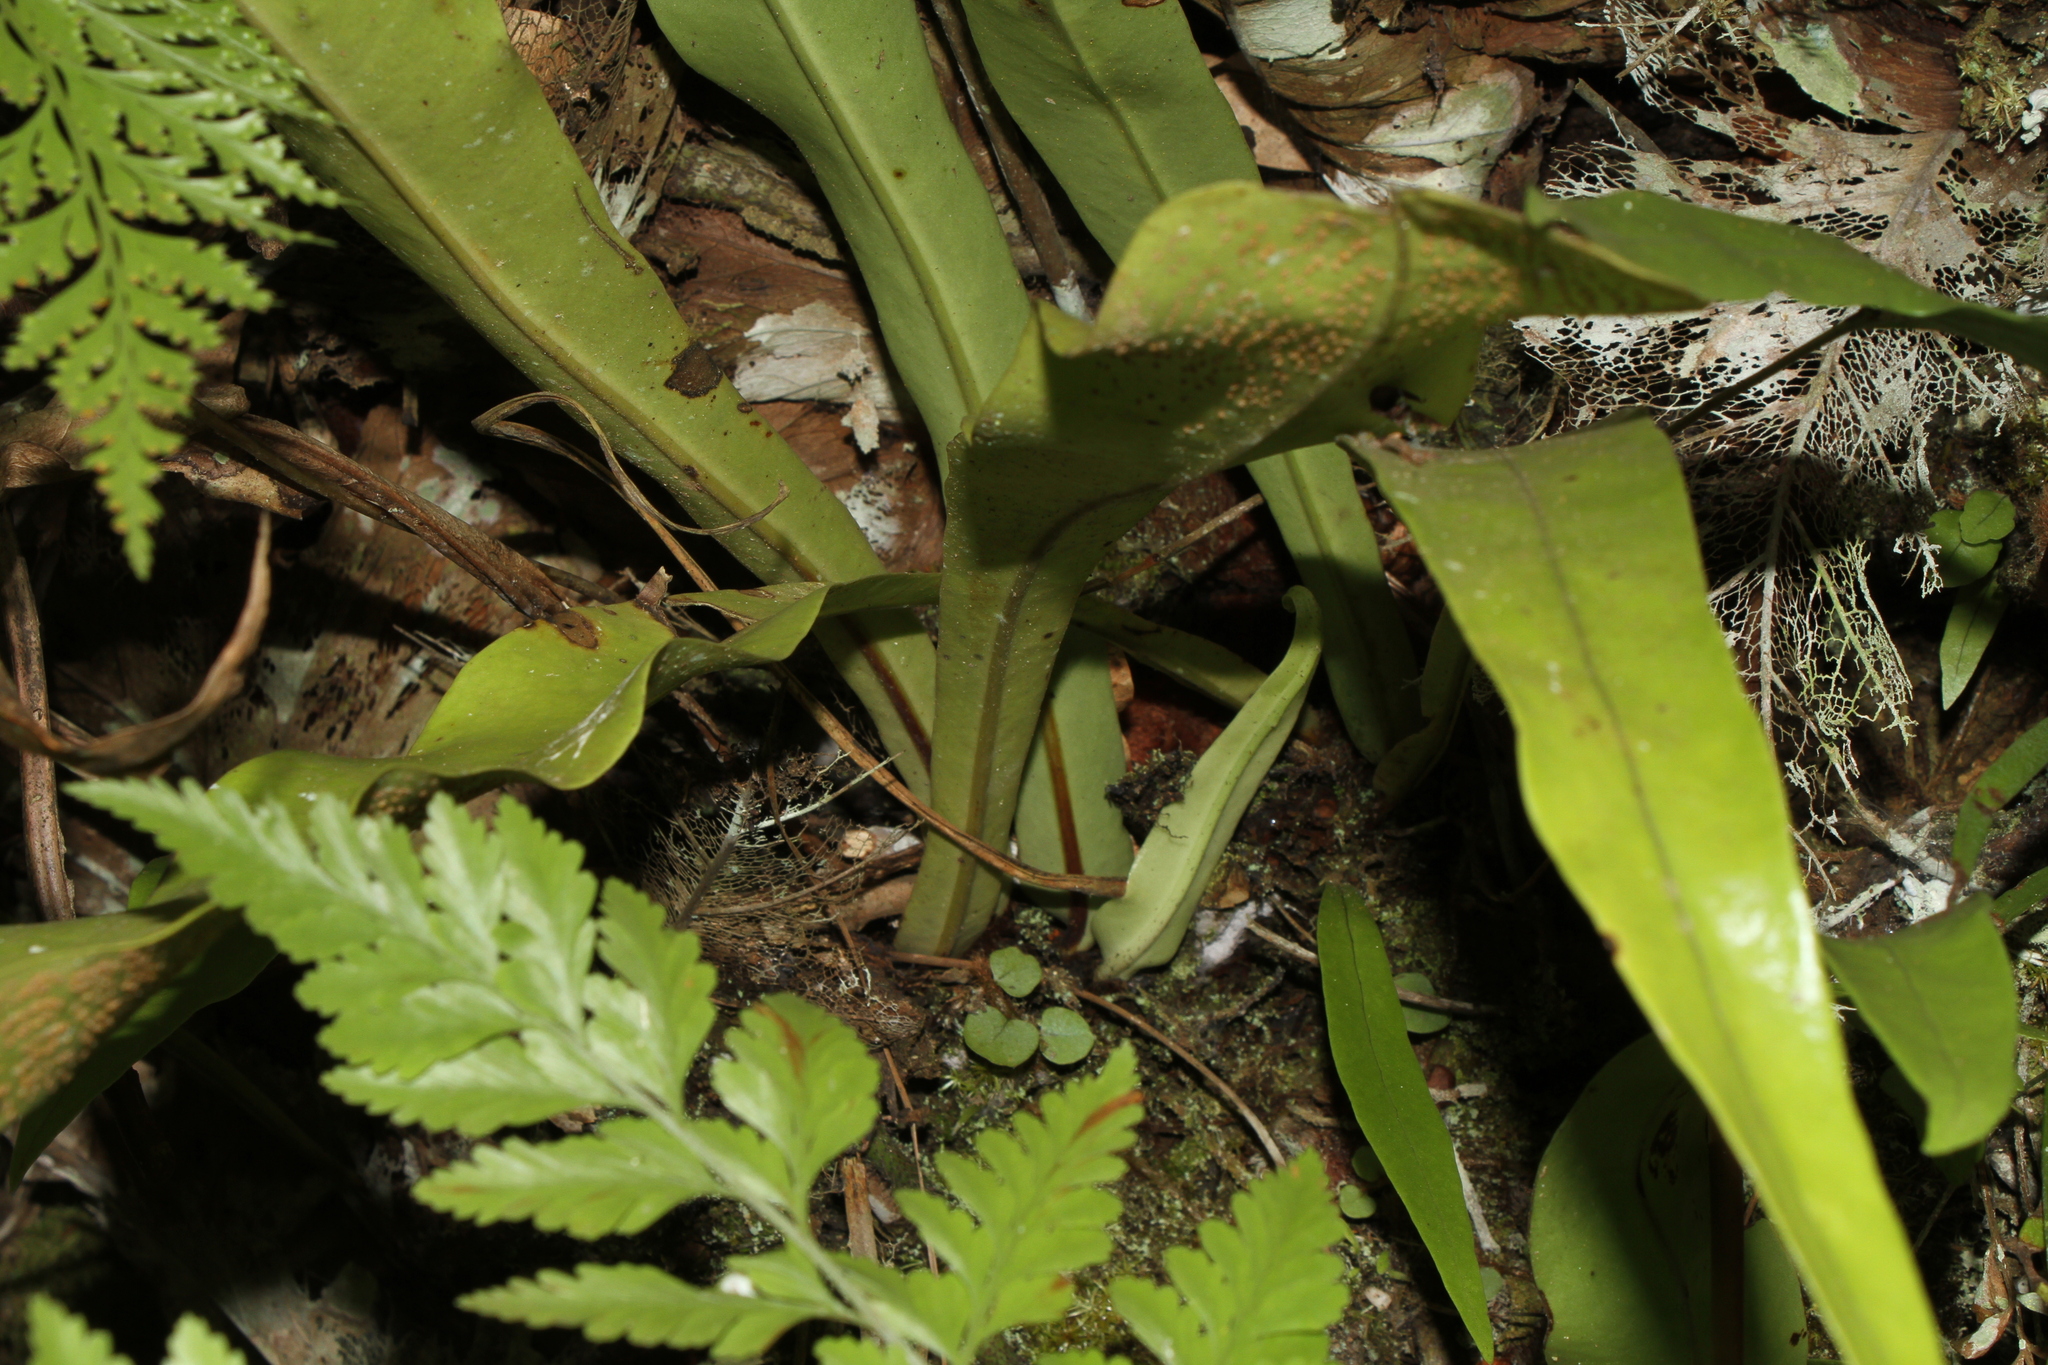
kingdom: Plantae
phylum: Tracheophyta
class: Polypodiopsida
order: Polypodiales
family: Polypodiaceae
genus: Microsorum
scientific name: Microsorum punctatum
